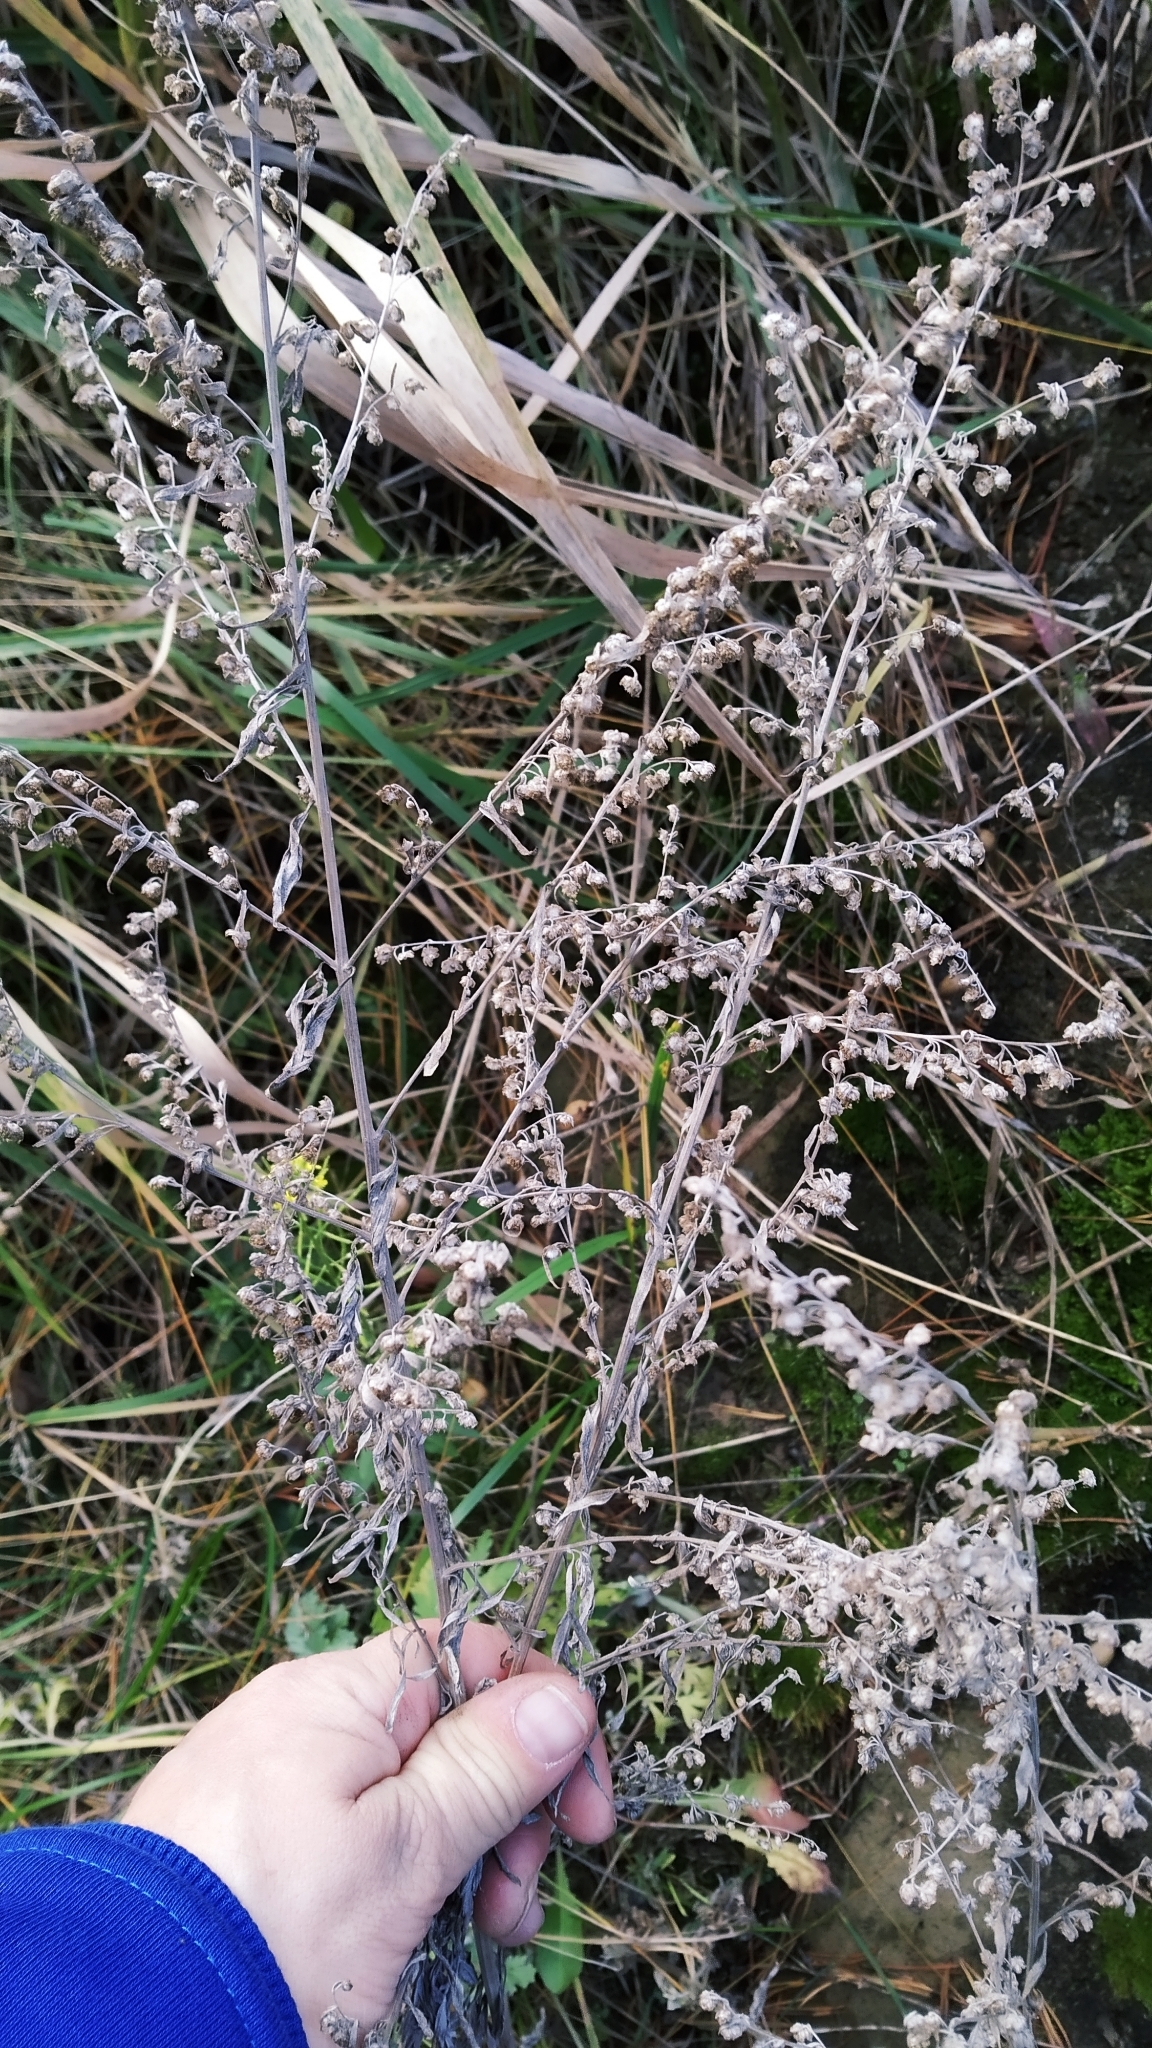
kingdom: Plantae
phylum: Tracheophyta
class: Magnoliopsida
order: Asterales
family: Asteraceae
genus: Artemisia
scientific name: Artemisia absinthium
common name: Wormwood
